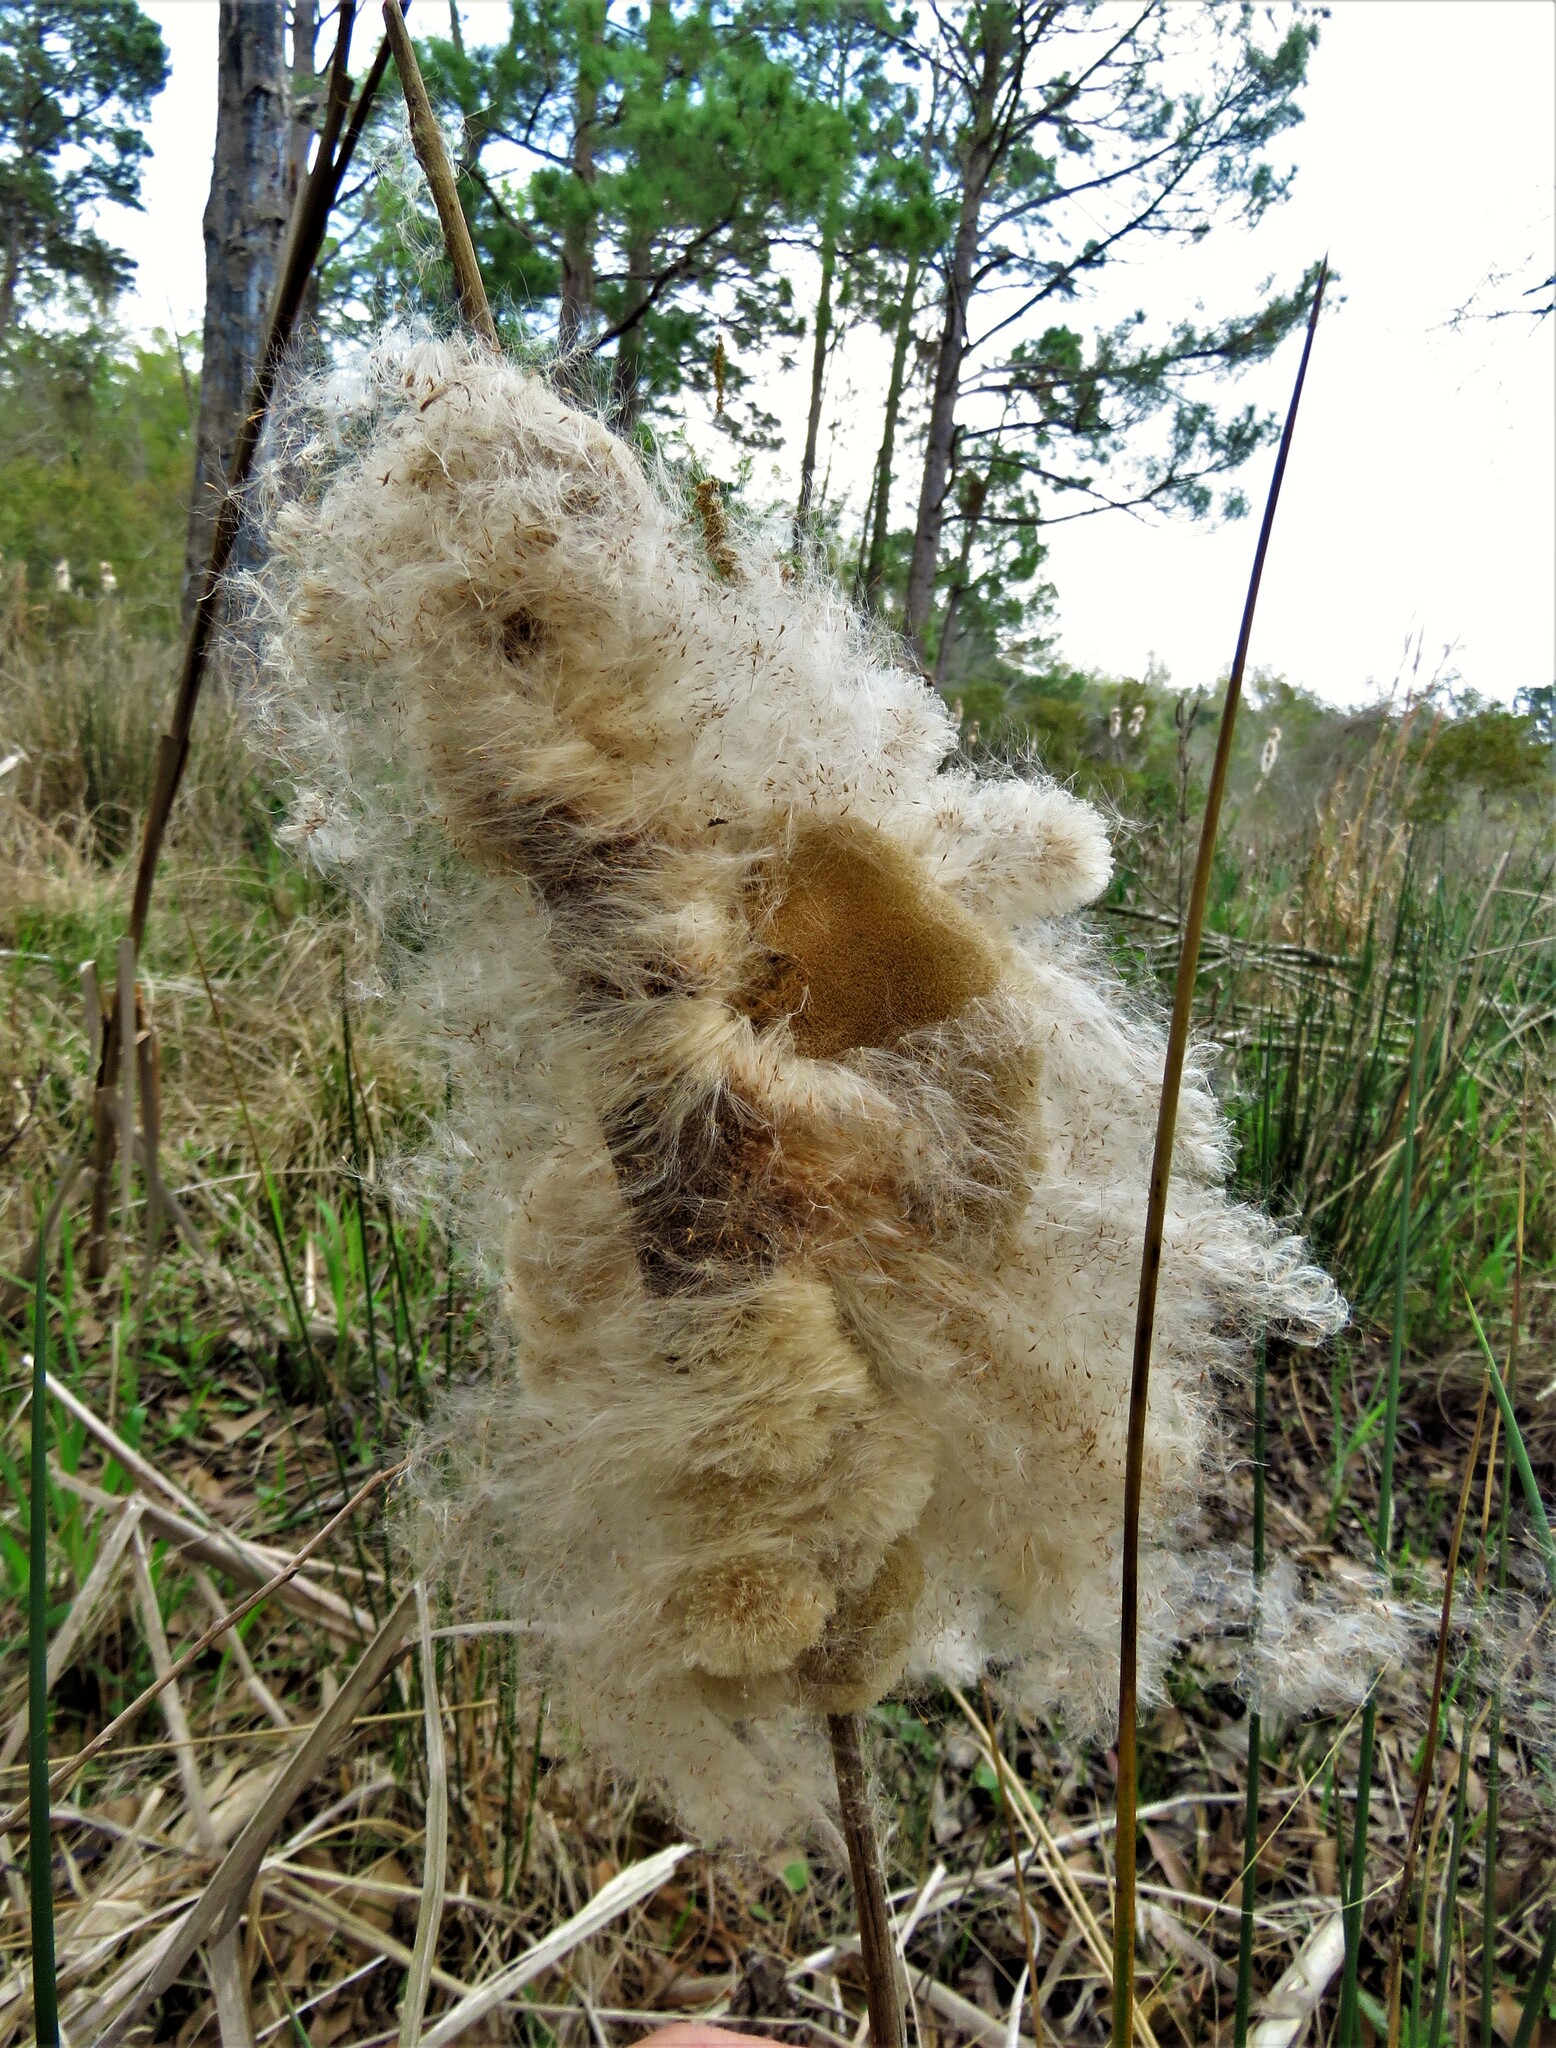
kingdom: Plantae
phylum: Tracheophyta
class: Liliopsida
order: Poales
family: Typhaceae
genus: Typha
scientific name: Typha latifolia
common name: Broadleaf cattail
